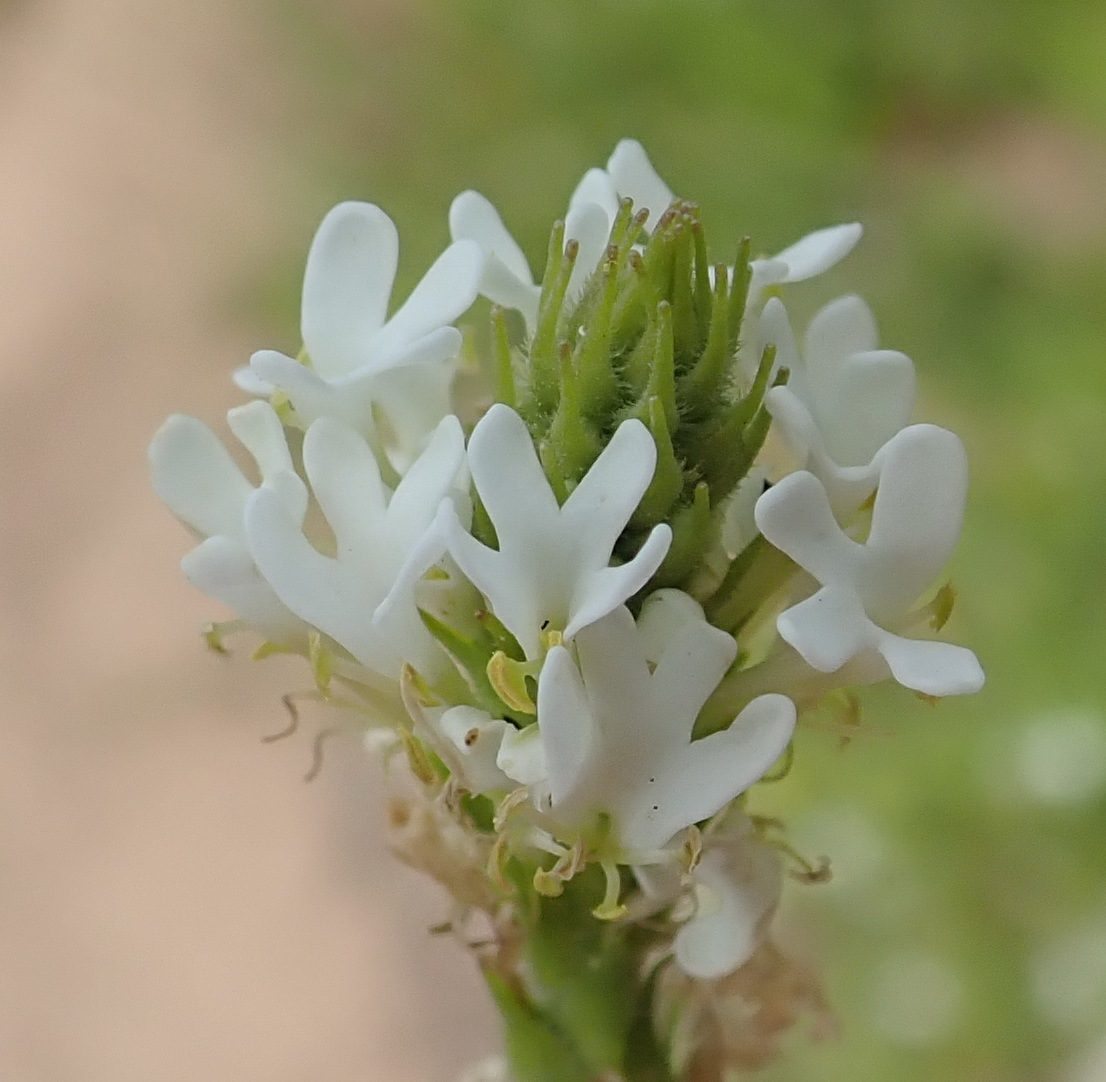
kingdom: Plantae
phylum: Tracheophyta
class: Magnoliopsida
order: Lamiales
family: Scrophulariaceae
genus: Dischisma
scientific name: Dischisma ciliatum
